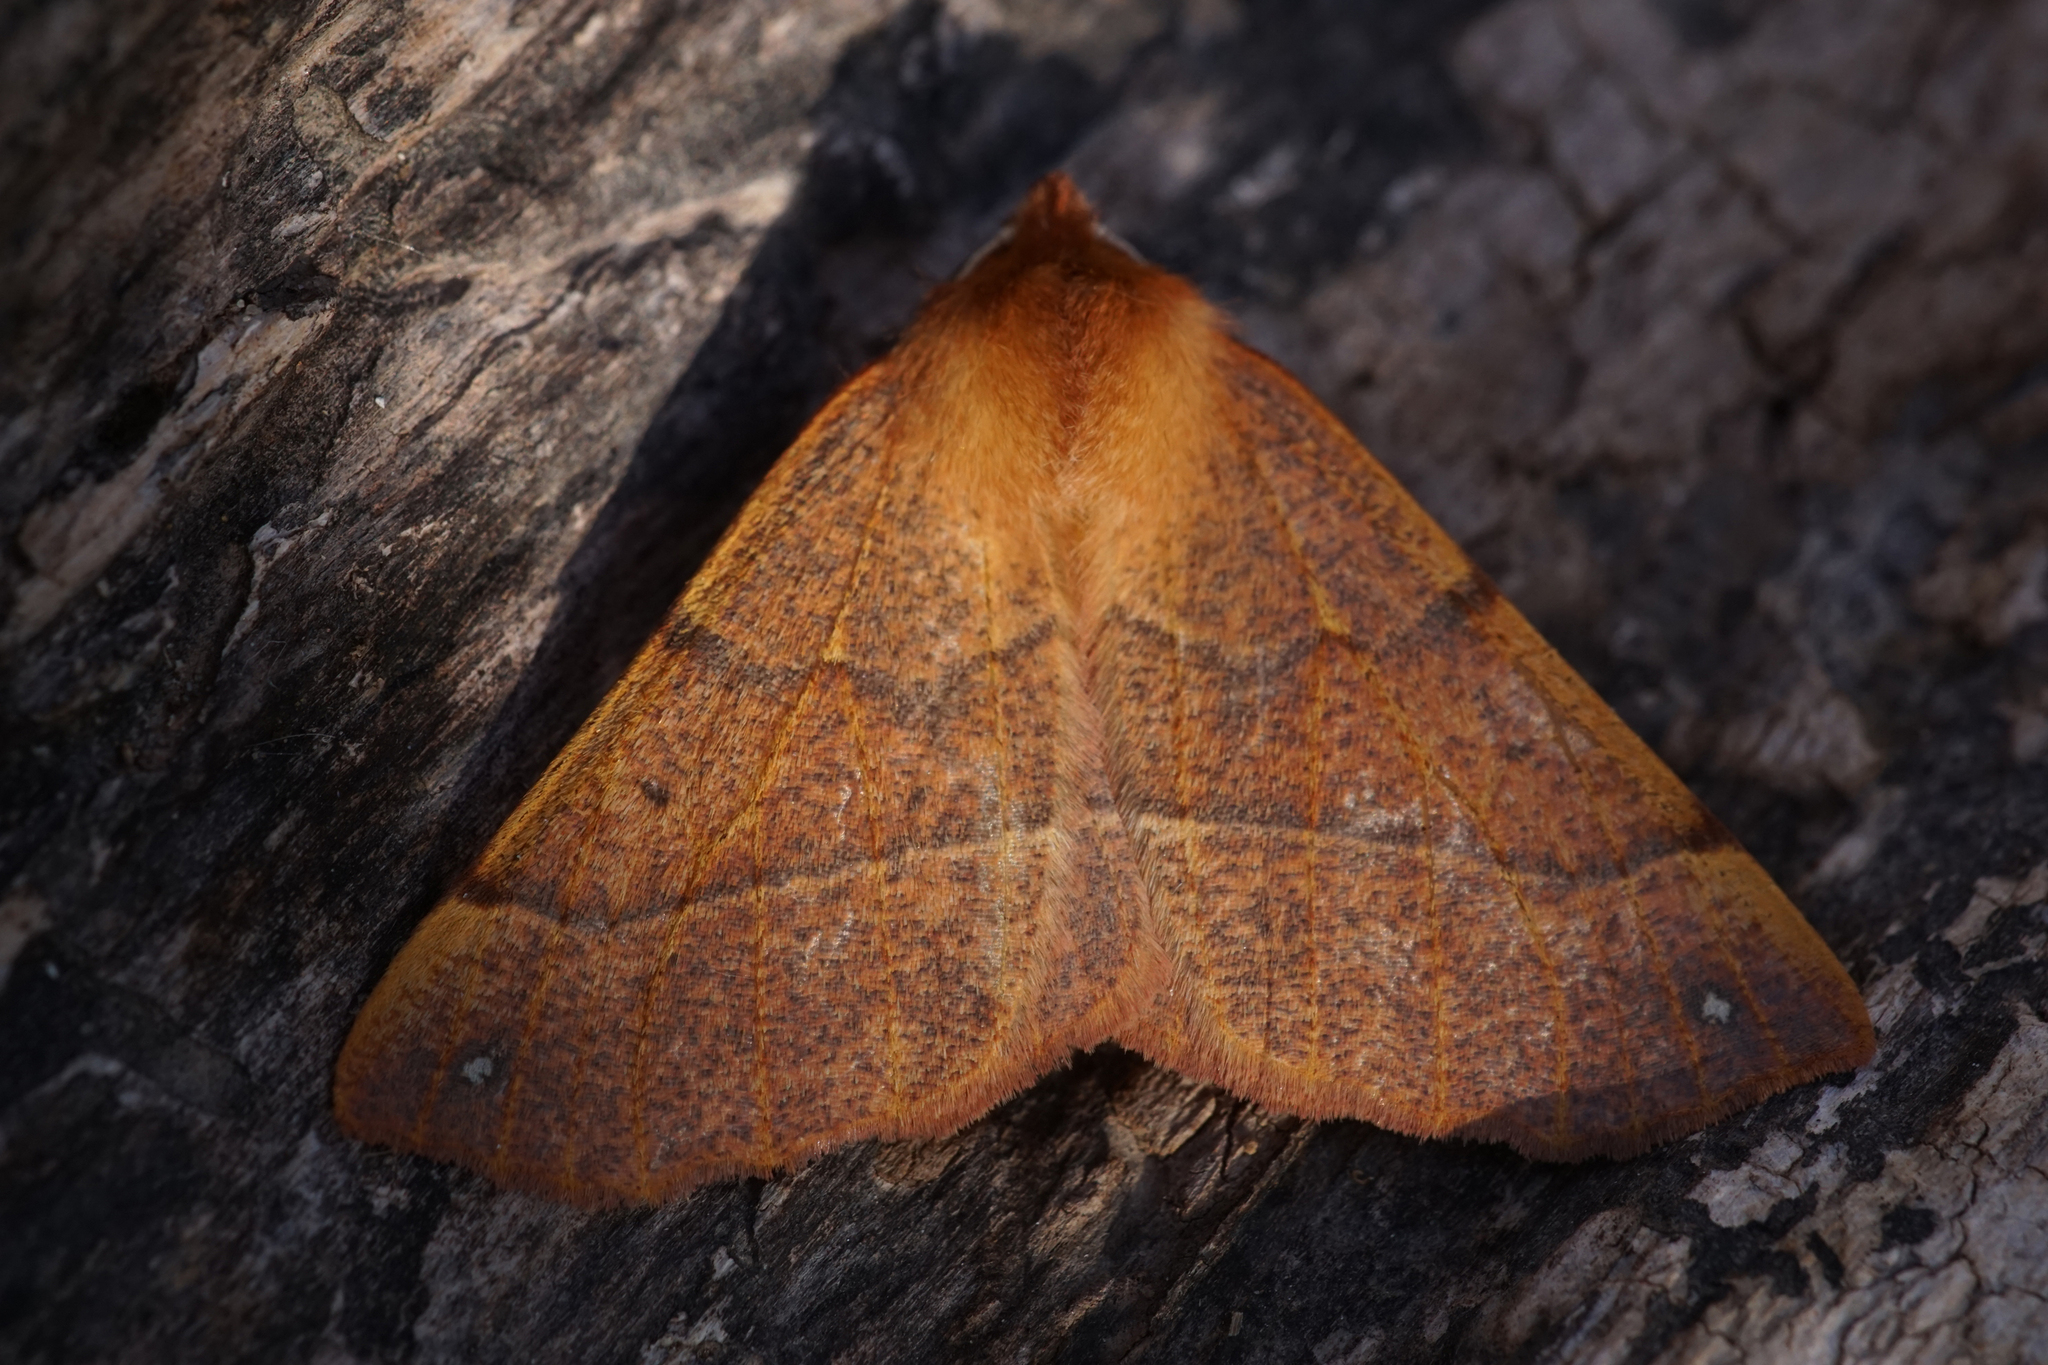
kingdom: Animalia
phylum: Arthropoda
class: Insecta
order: Lepidoptera
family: Geometridae
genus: Colotois
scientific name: Colotois pennaria
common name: Feathered thorn
